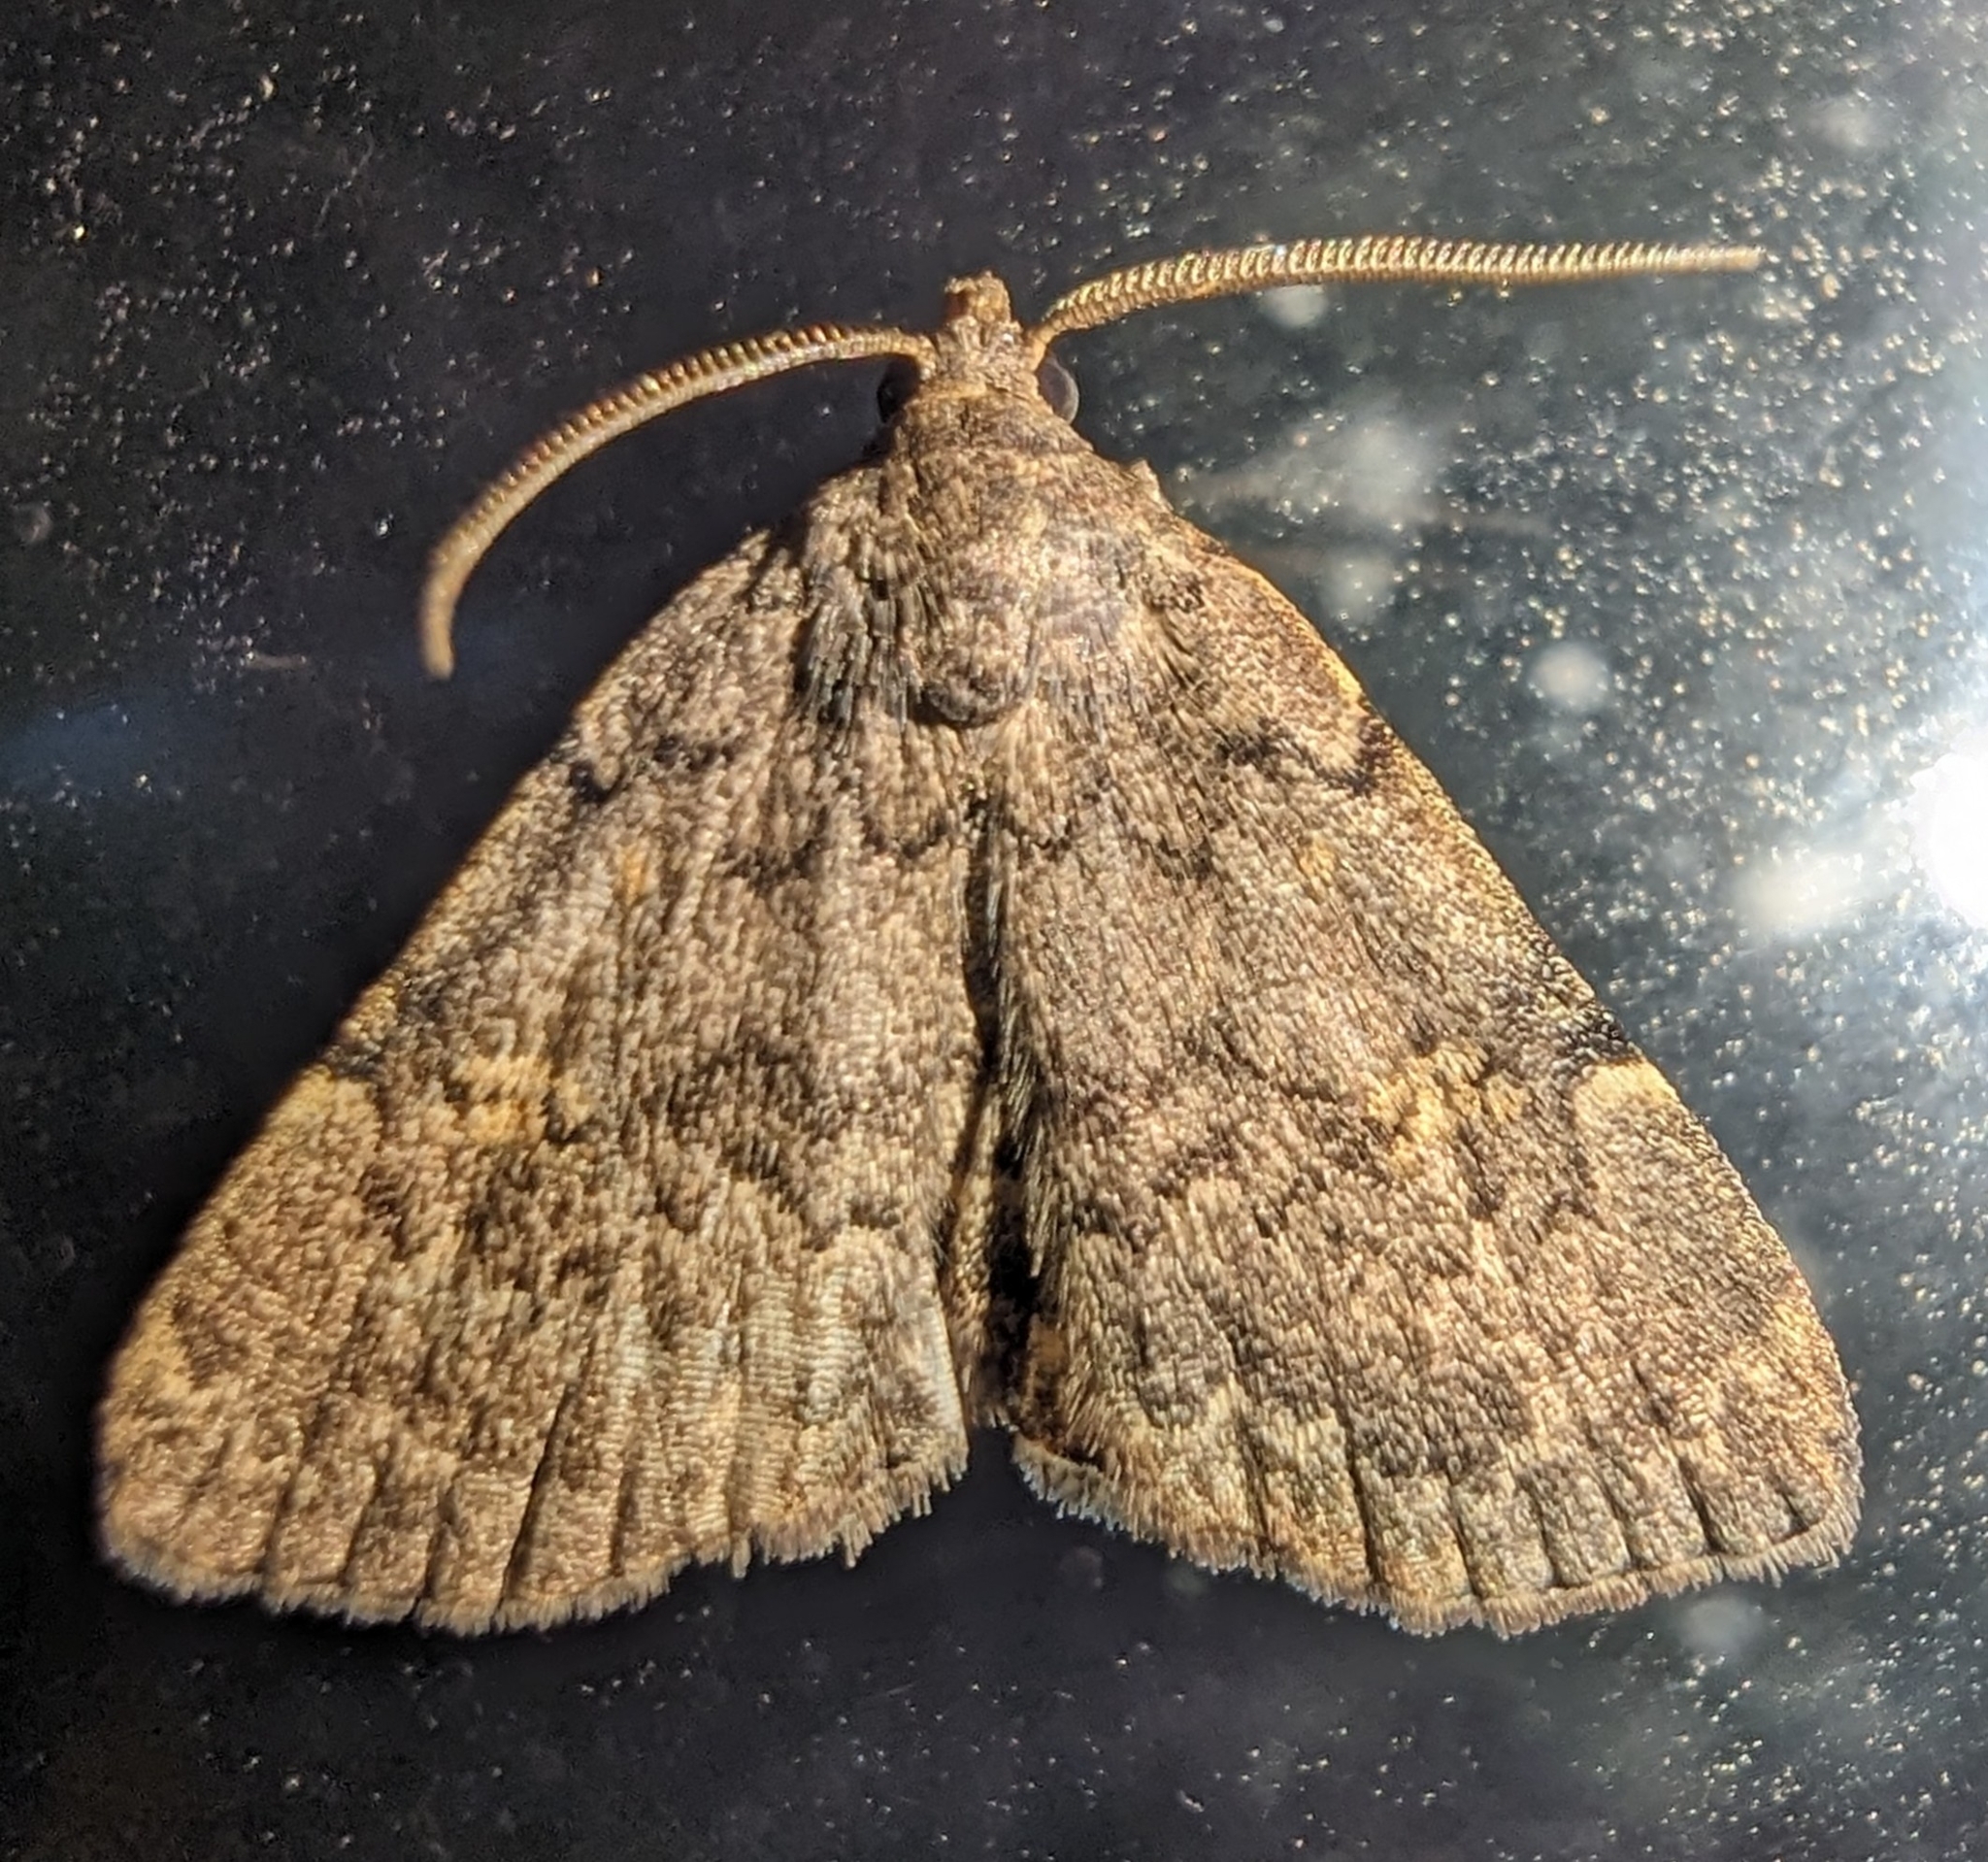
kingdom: Animalia
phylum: Arthropoda
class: Insecta
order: Lepidoptera
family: Erebidae
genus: Idia
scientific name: Idia aemula
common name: Common idia moth
